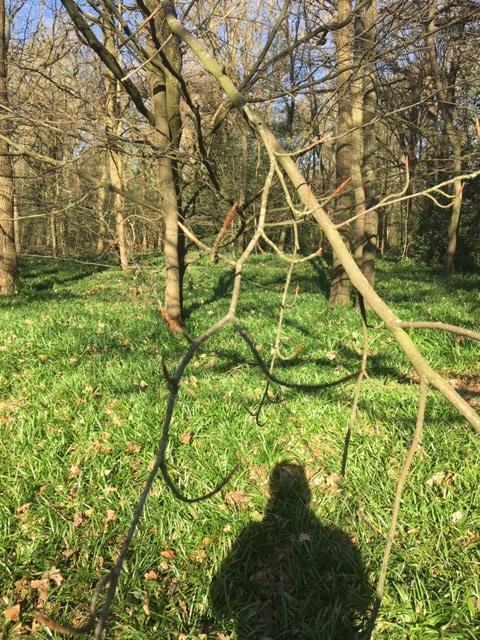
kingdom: Plantae
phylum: Tracheophyta
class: Magnoliopsida
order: Fagales
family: Fagaceae
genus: Fagus
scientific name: Fagus sylvatica
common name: Beech
